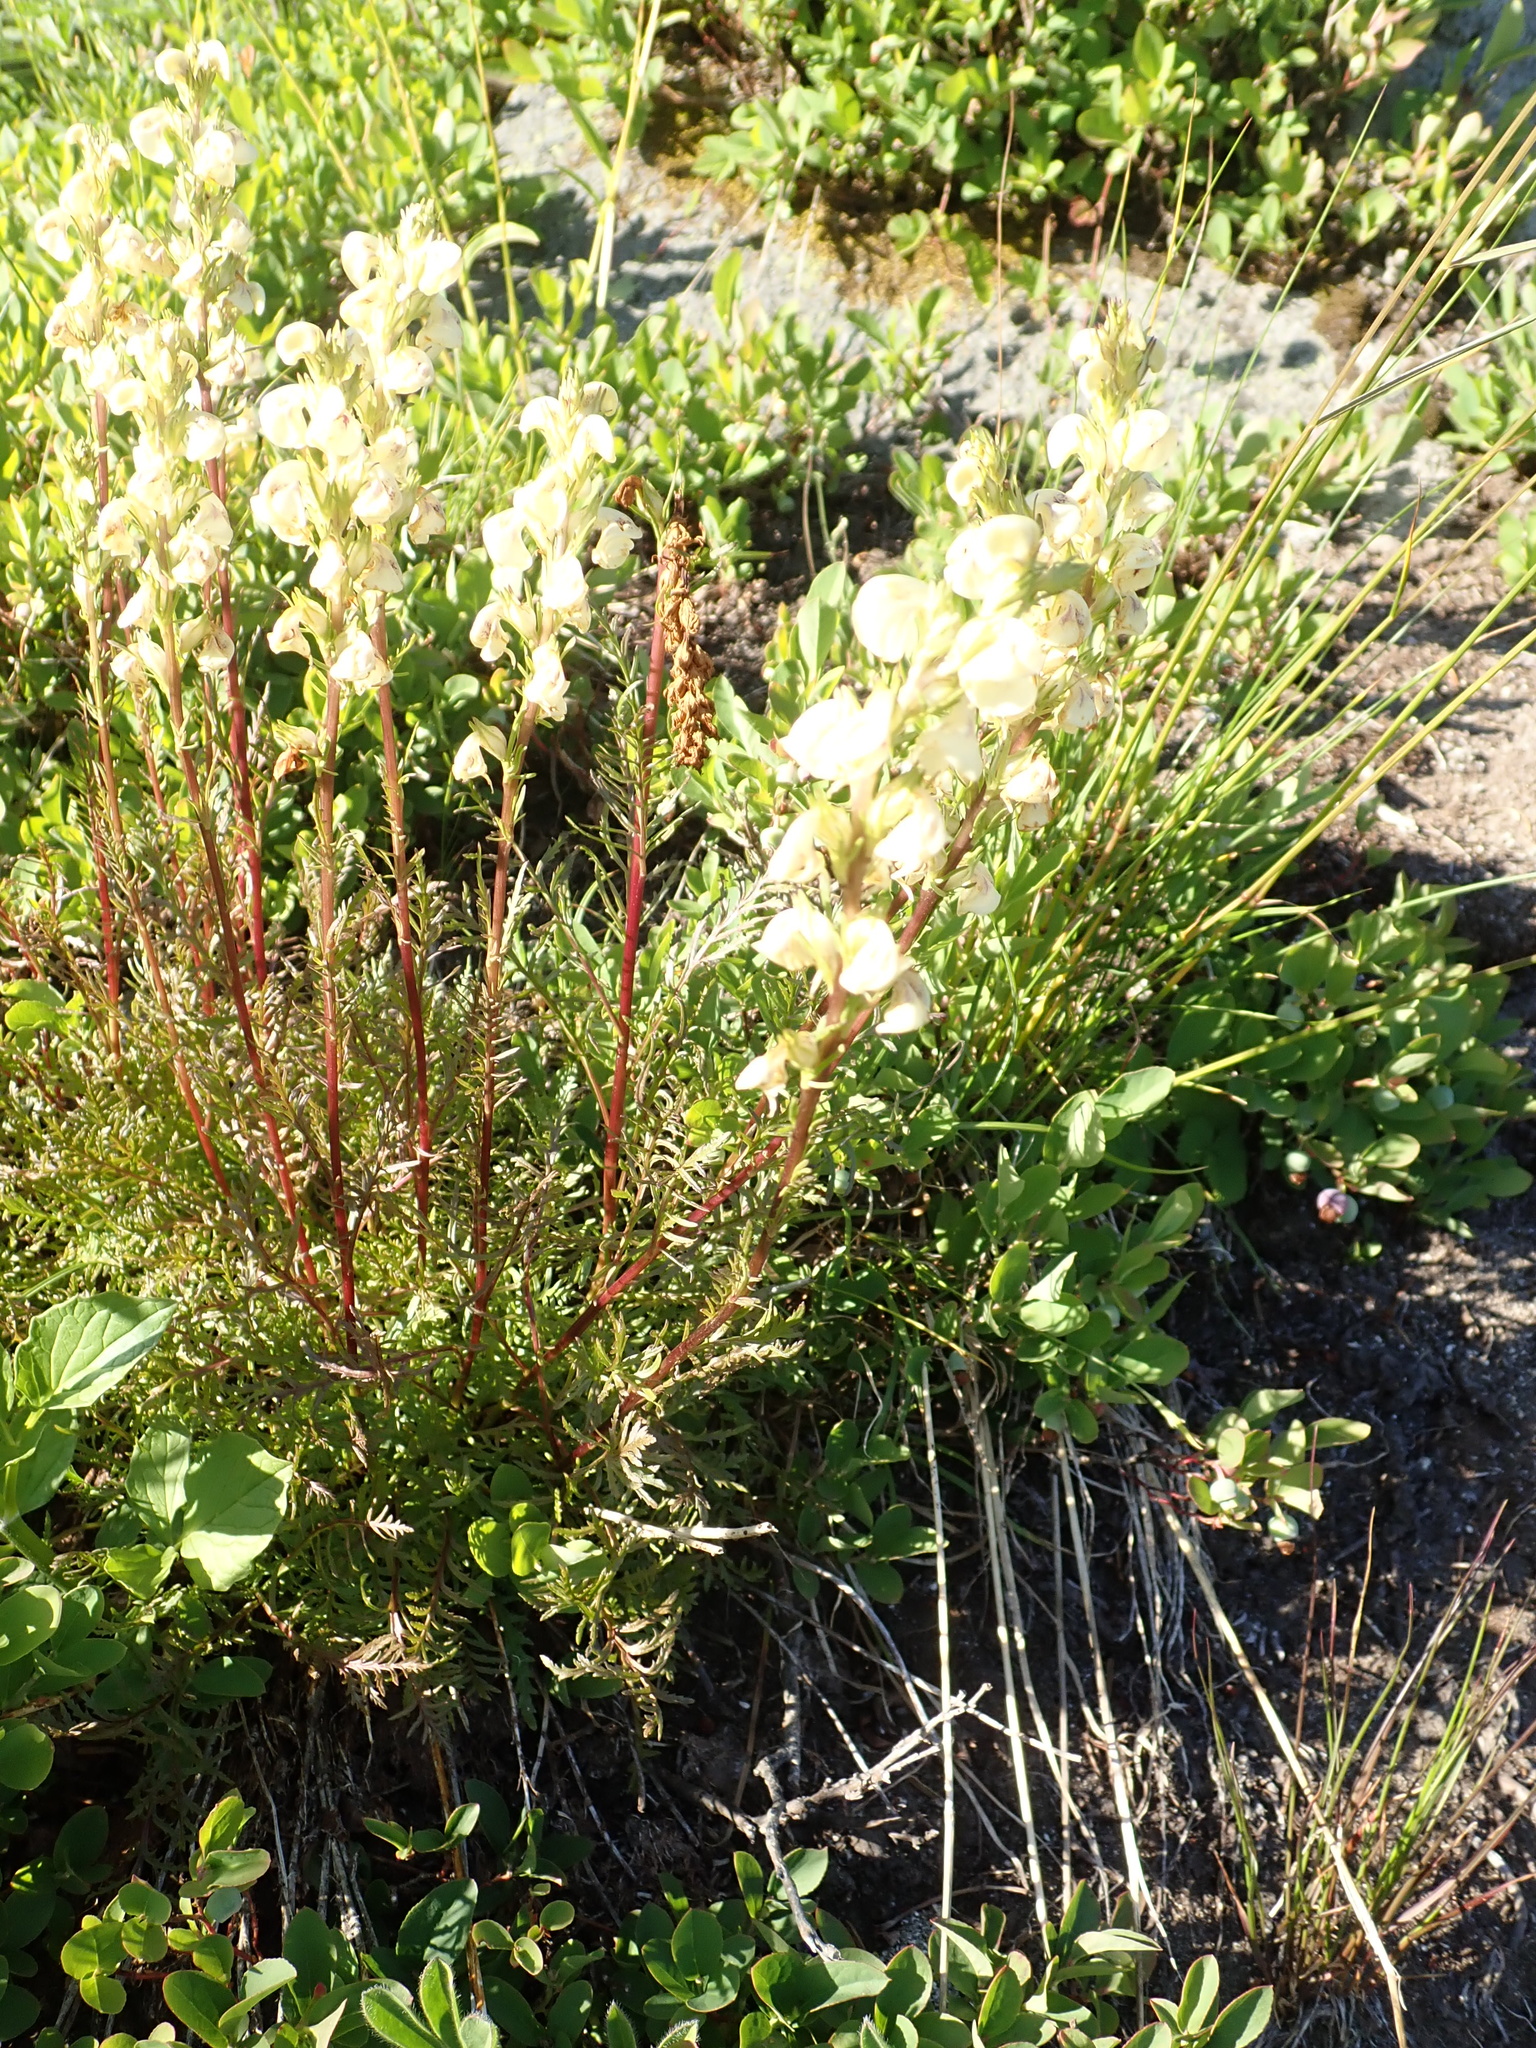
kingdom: Plantae
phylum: Tracheophyta
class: Magnoliopsida
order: Lamiales
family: Orobanchaceae
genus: Pedicularis
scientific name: Pedicularis contorta
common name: Coiled lousewort
